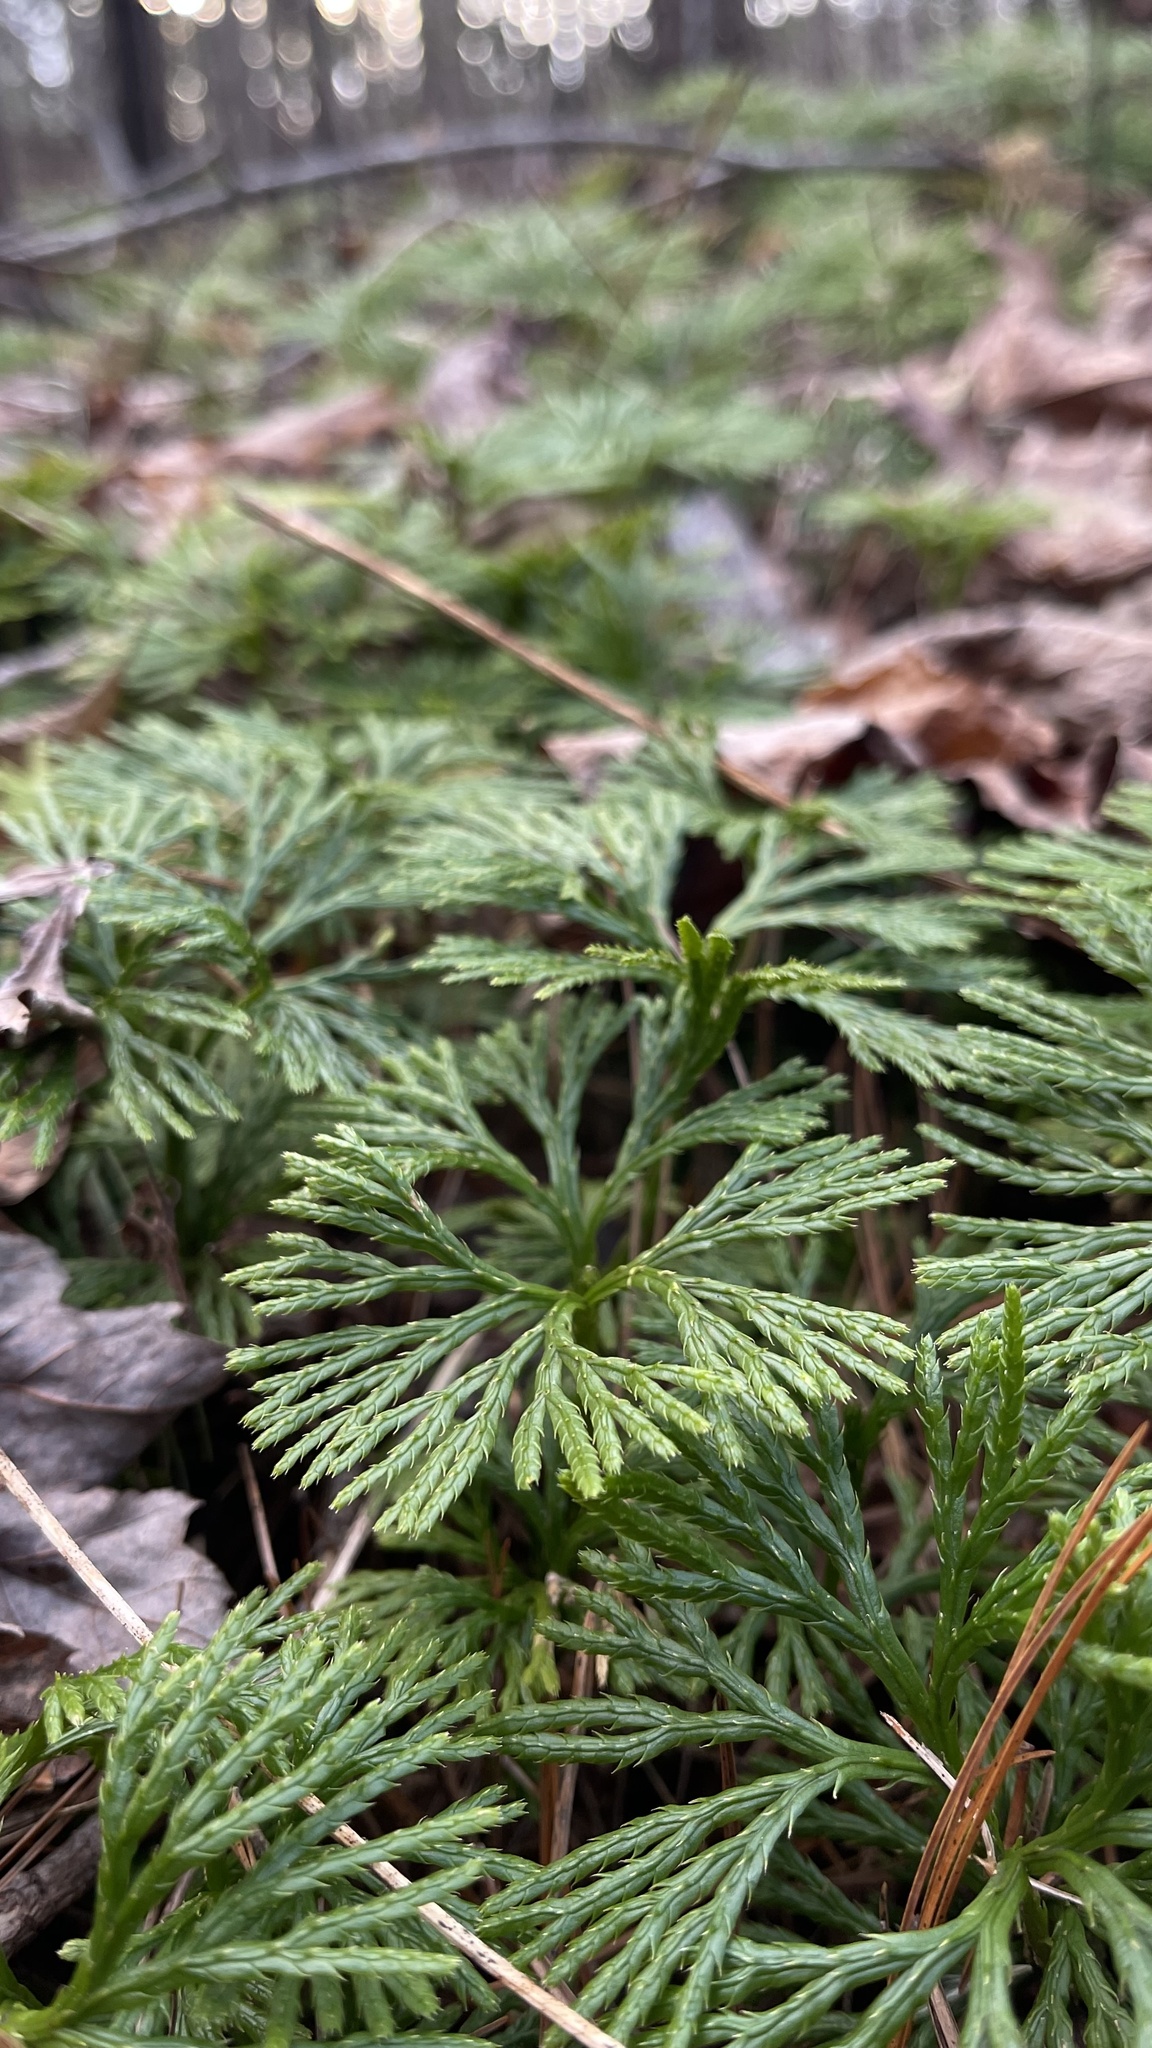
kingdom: Plantae
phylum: Tracheophyta
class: Lycopodiopsida
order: Lycopodiales
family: Lycopodiaceae
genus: Diphasiastrum
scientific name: Diphasiastrum digitatum
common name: Southern running-pine
